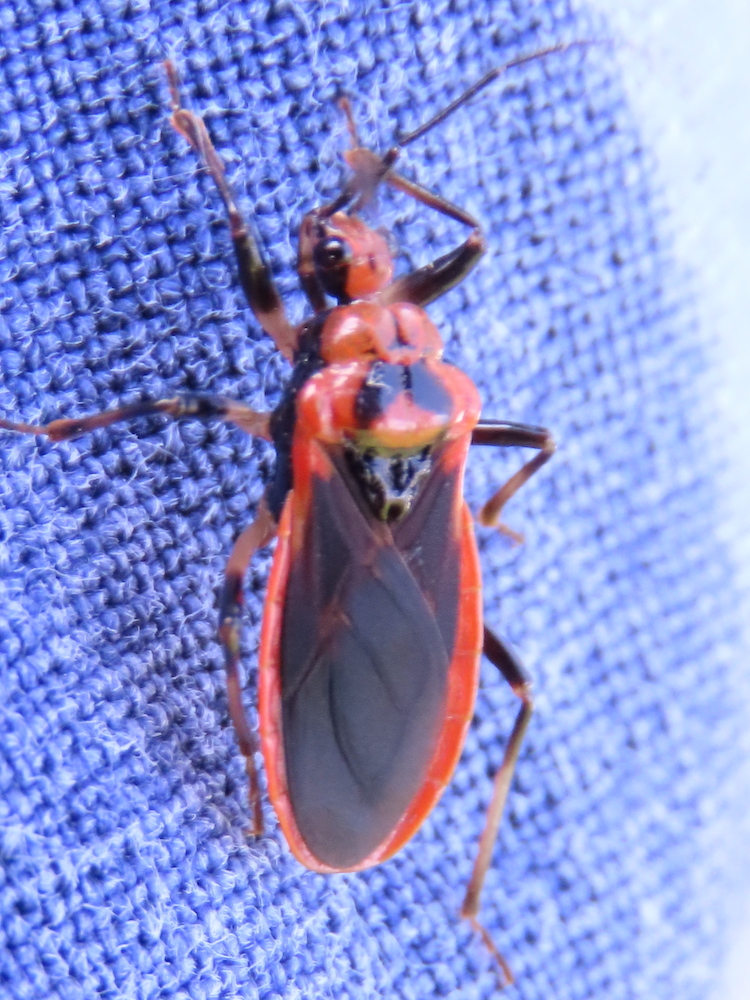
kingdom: Animalia
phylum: Arthropoda
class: Insecta
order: Hemiptera
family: Reduviidae
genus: Rhiginia
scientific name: Rhiginia cruciata
